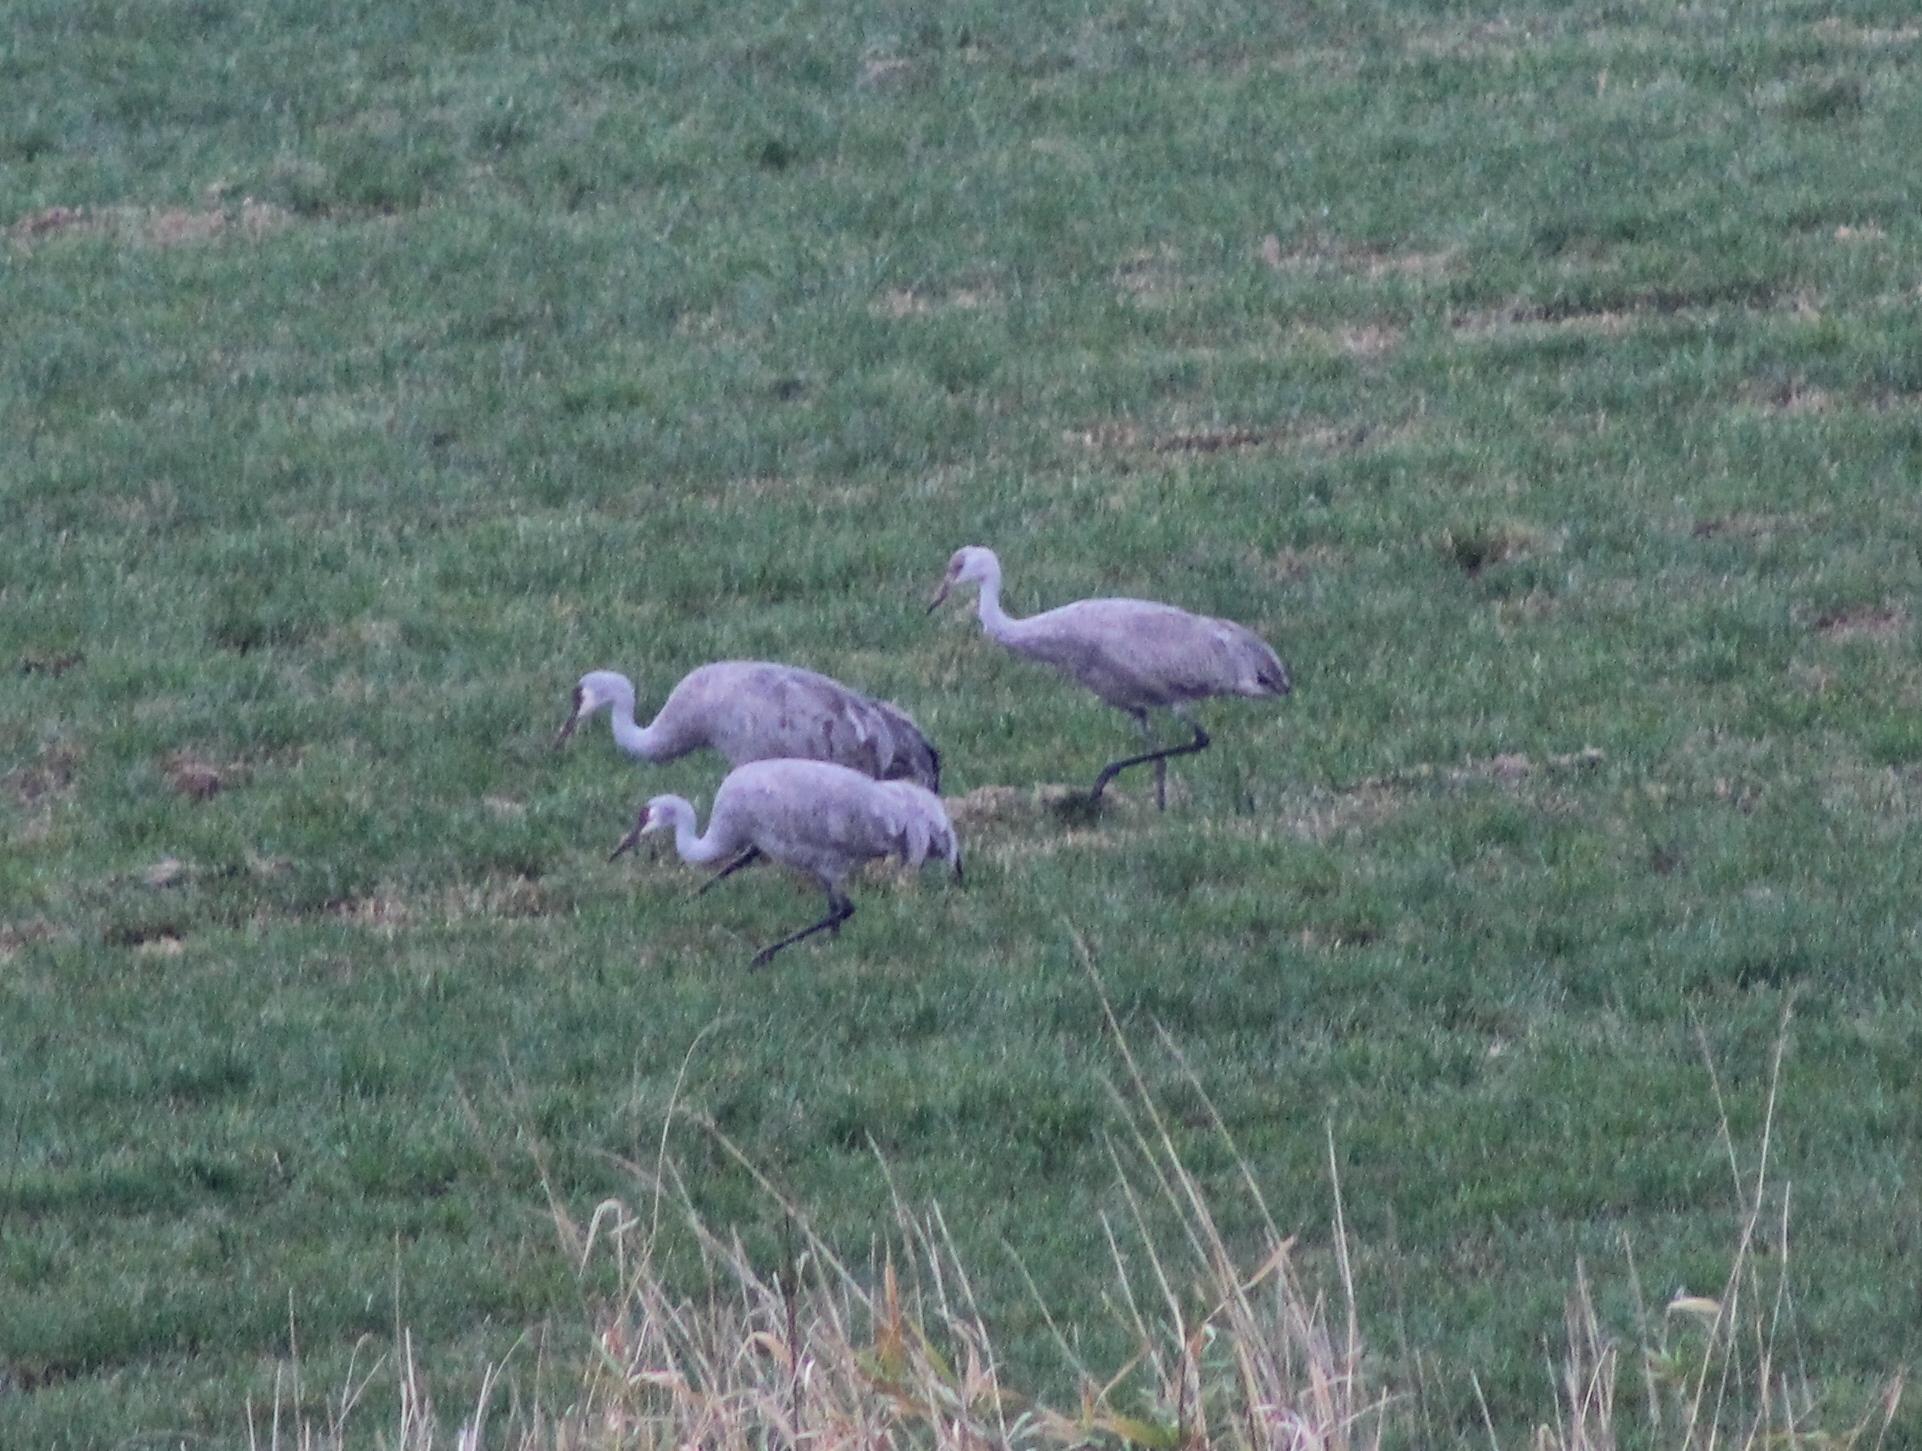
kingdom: Animalia
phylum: Chordata
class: Aves
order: Gruiformes
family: Gruidae
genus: Grus
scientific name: Grus canadensis
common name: Sandhill crane
